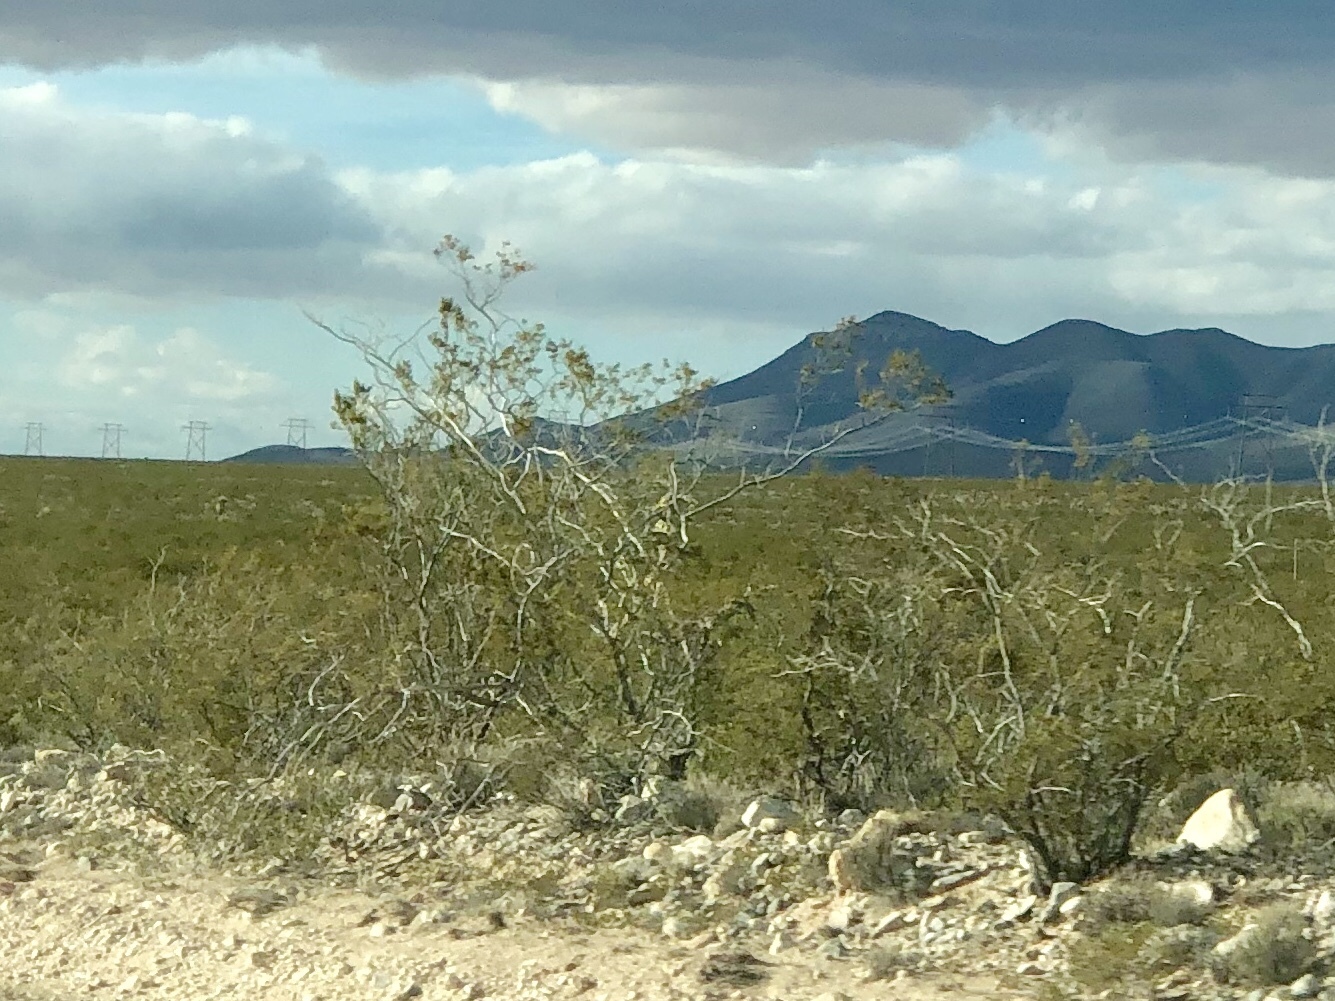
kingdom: Plantae
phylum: Tracheophyta
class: Magnoliopsida
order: Zygophyllales
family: Zygophyllaceae
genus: Larrea
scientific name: Larrea tridentata
